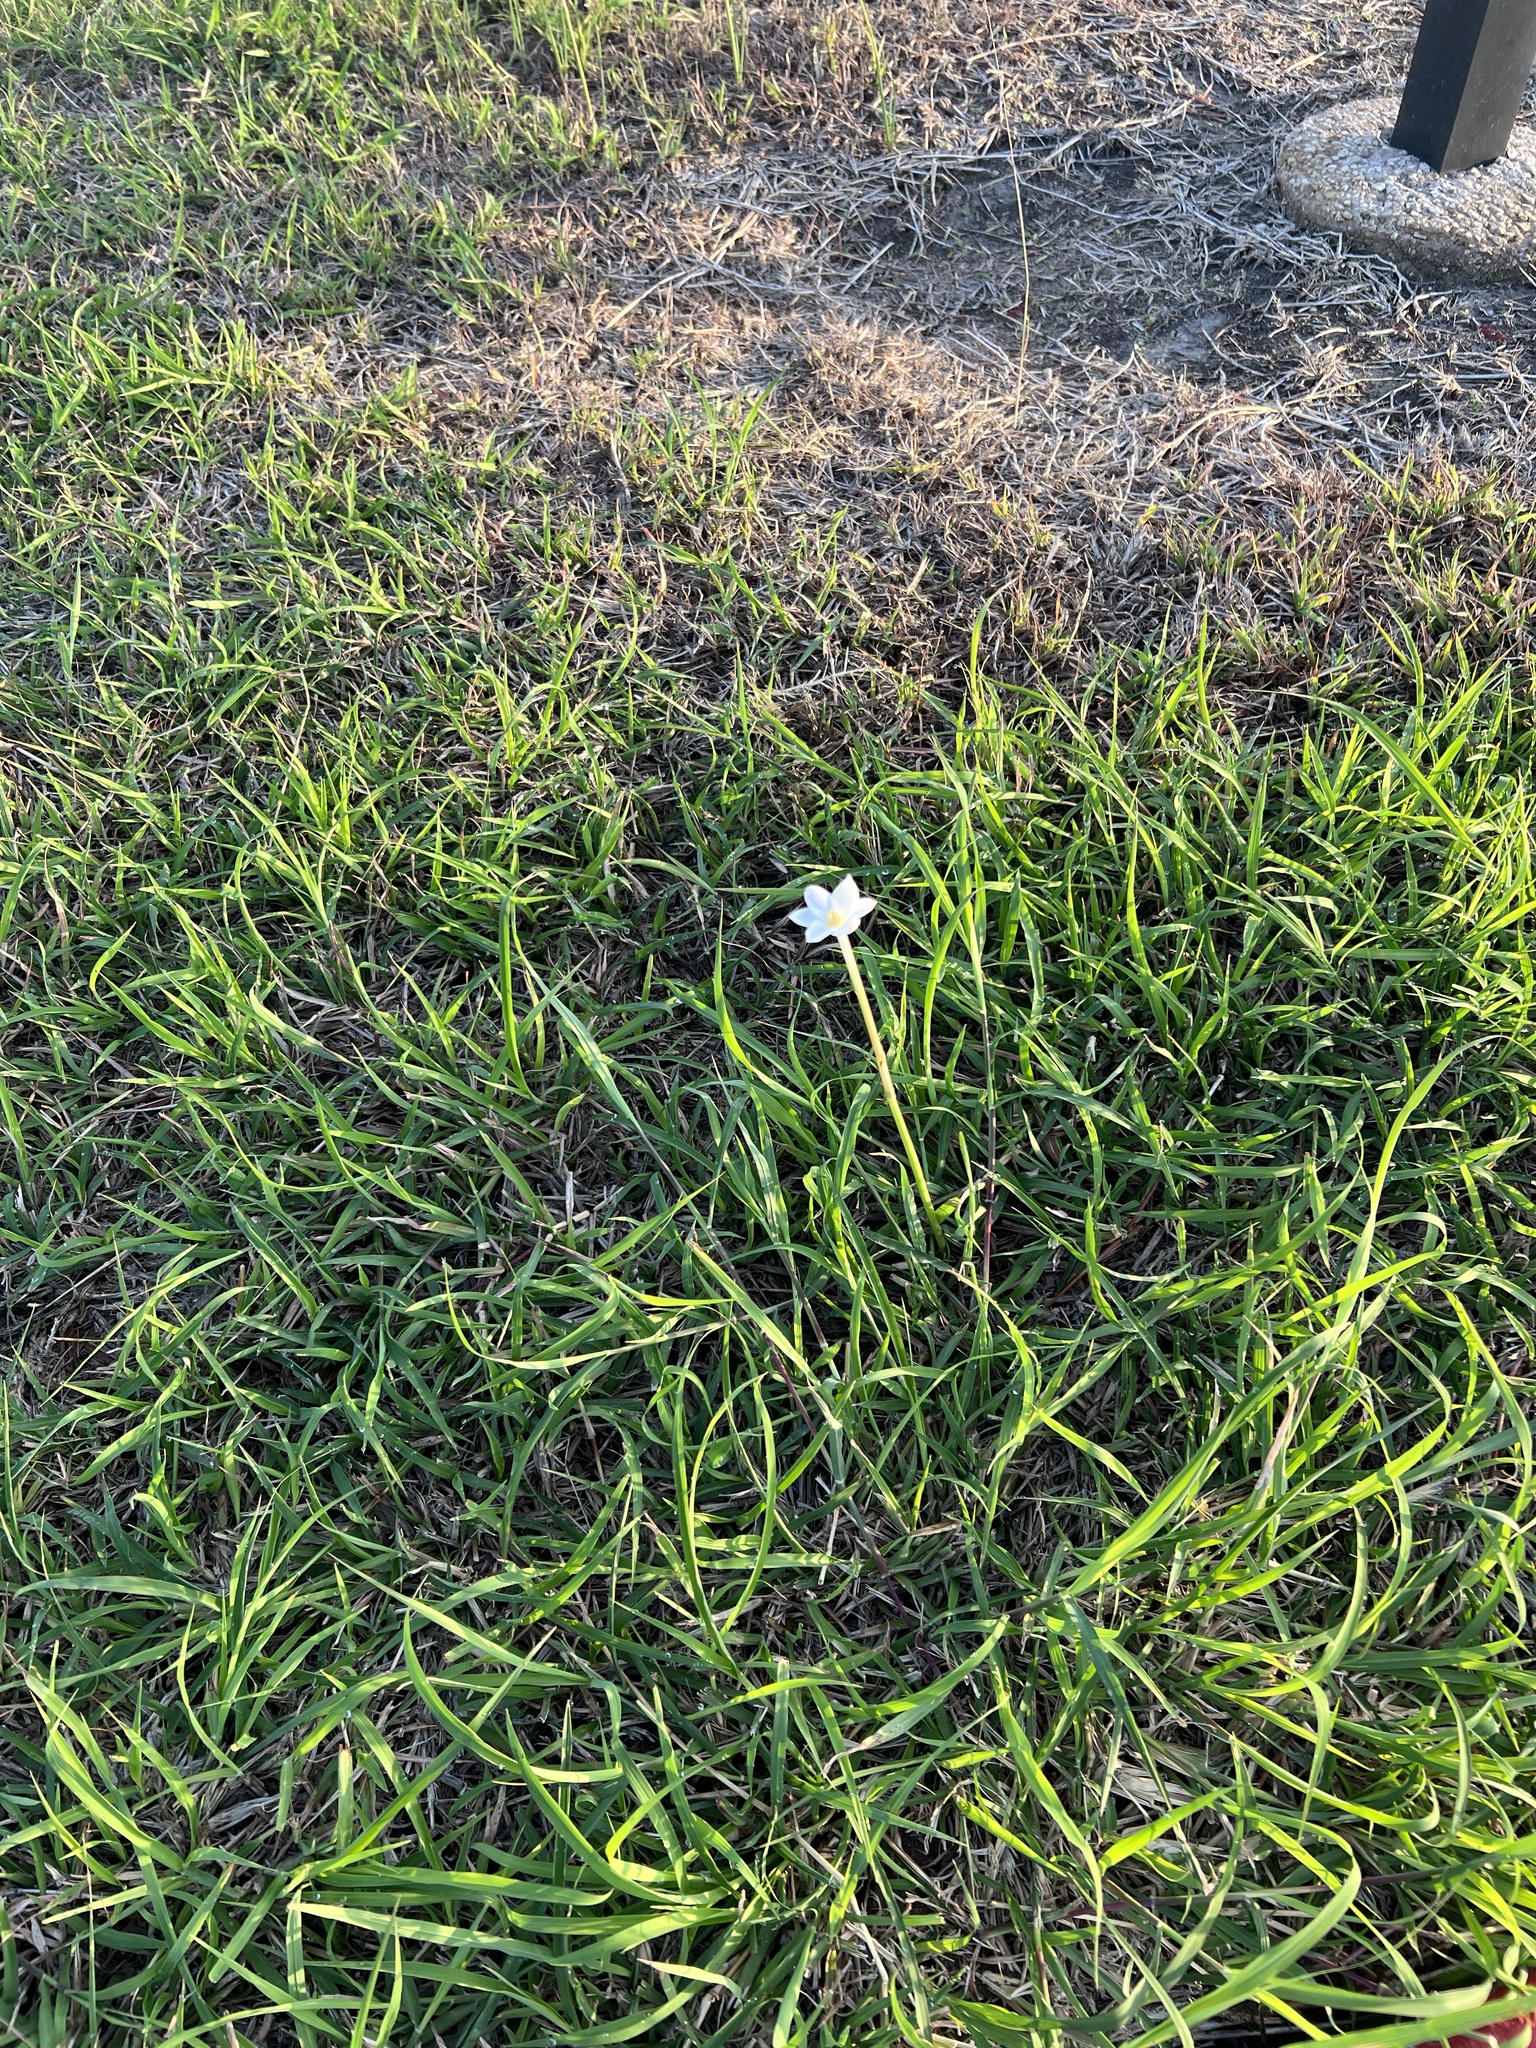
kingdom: Plantae
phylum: Tracheophyta
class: Liliopsida
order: Asparagales
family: Amaryllidaceae
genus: Zephyranthes
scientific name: Zephyranthes chlorosolen
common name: Evening rain-lily
